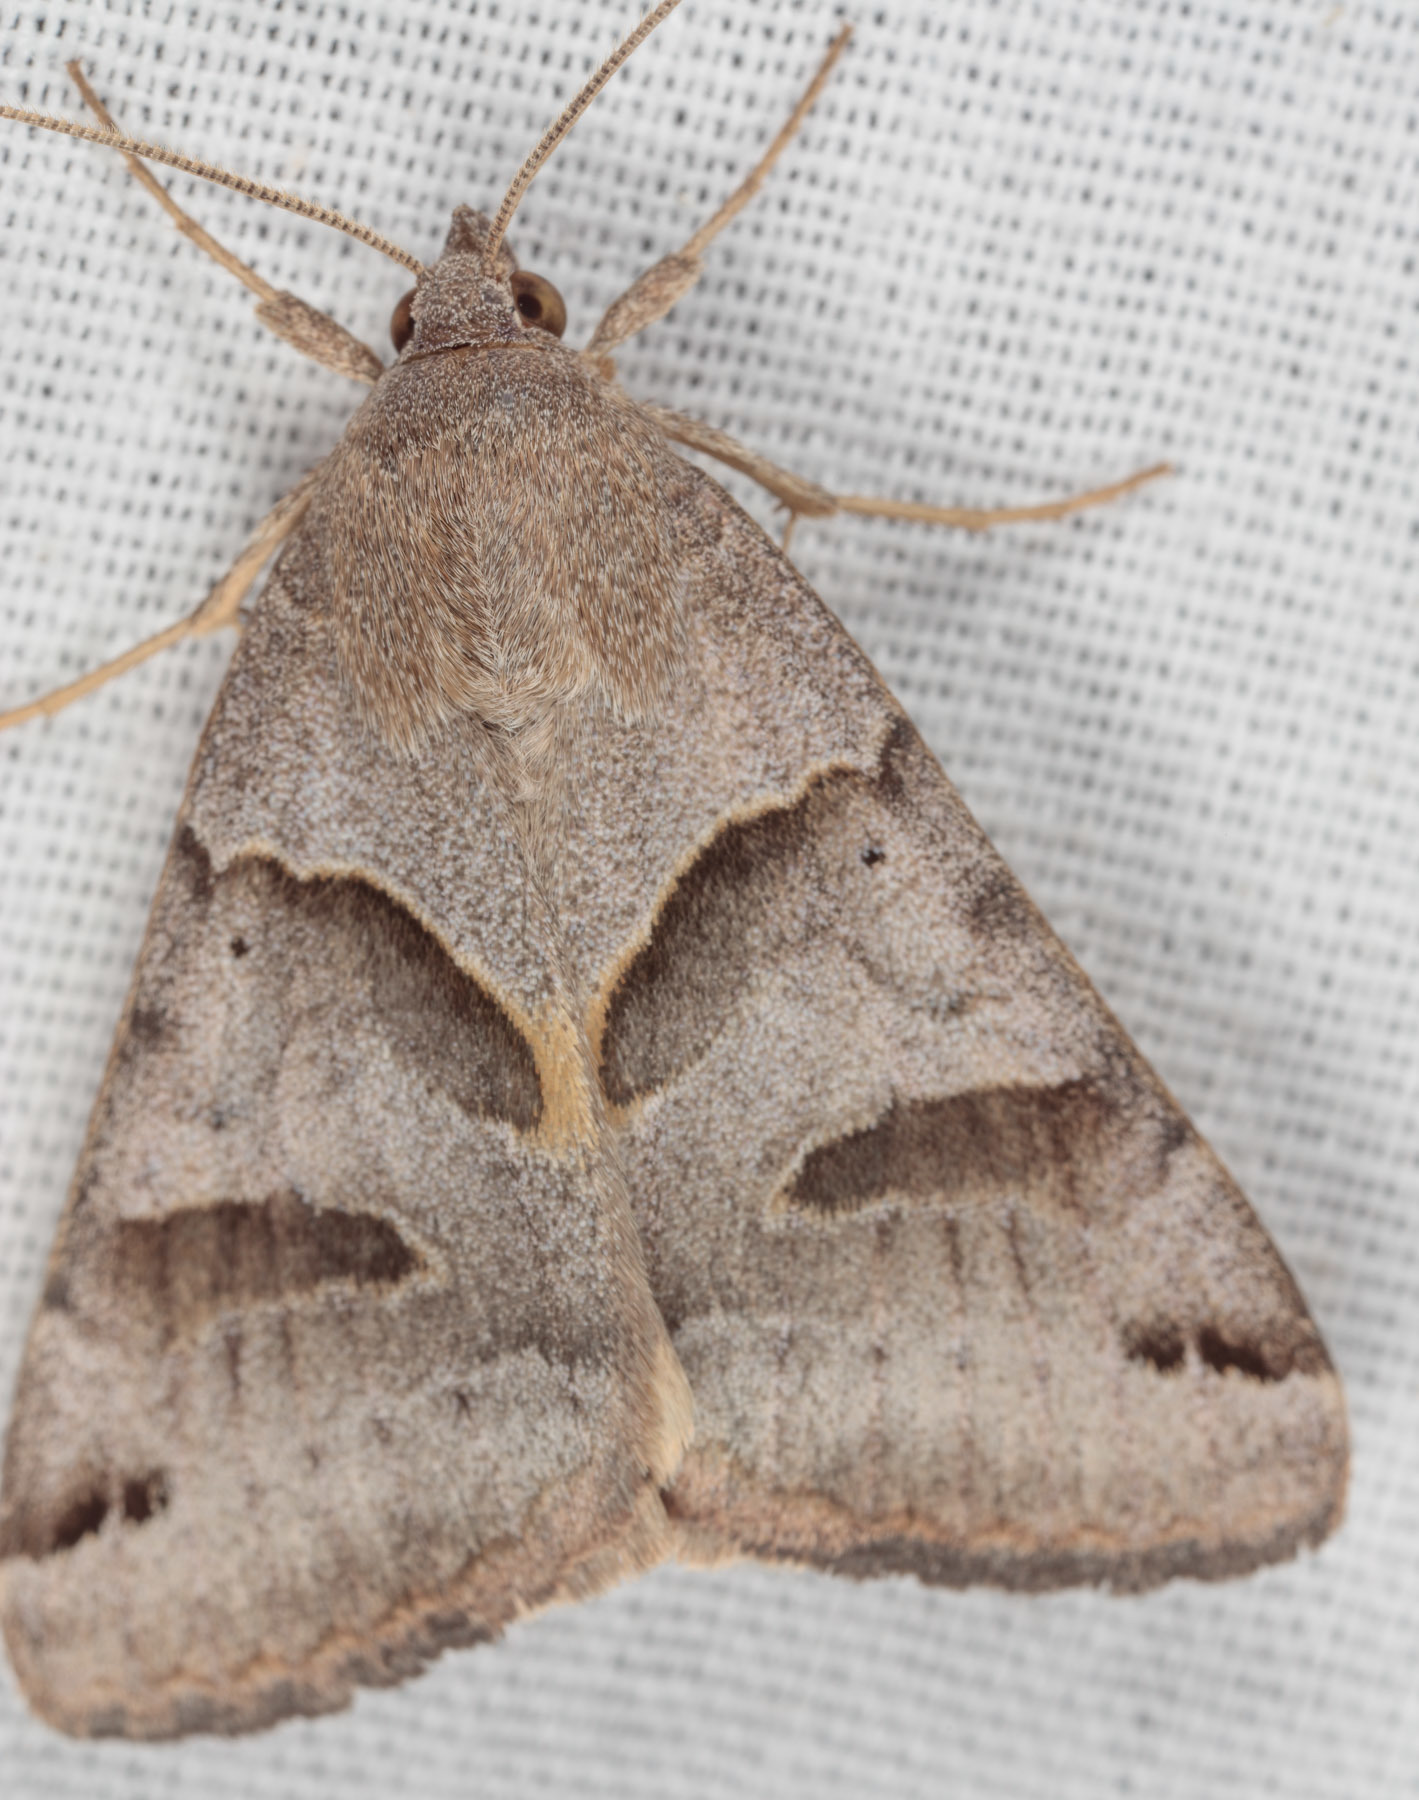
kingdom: Animalia
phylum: Arthropoda
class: Insecta
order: Lepidoptera
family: Erebidae
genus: Caenurgina
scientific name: Caenurgina erechtea
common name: Forage looper moth
